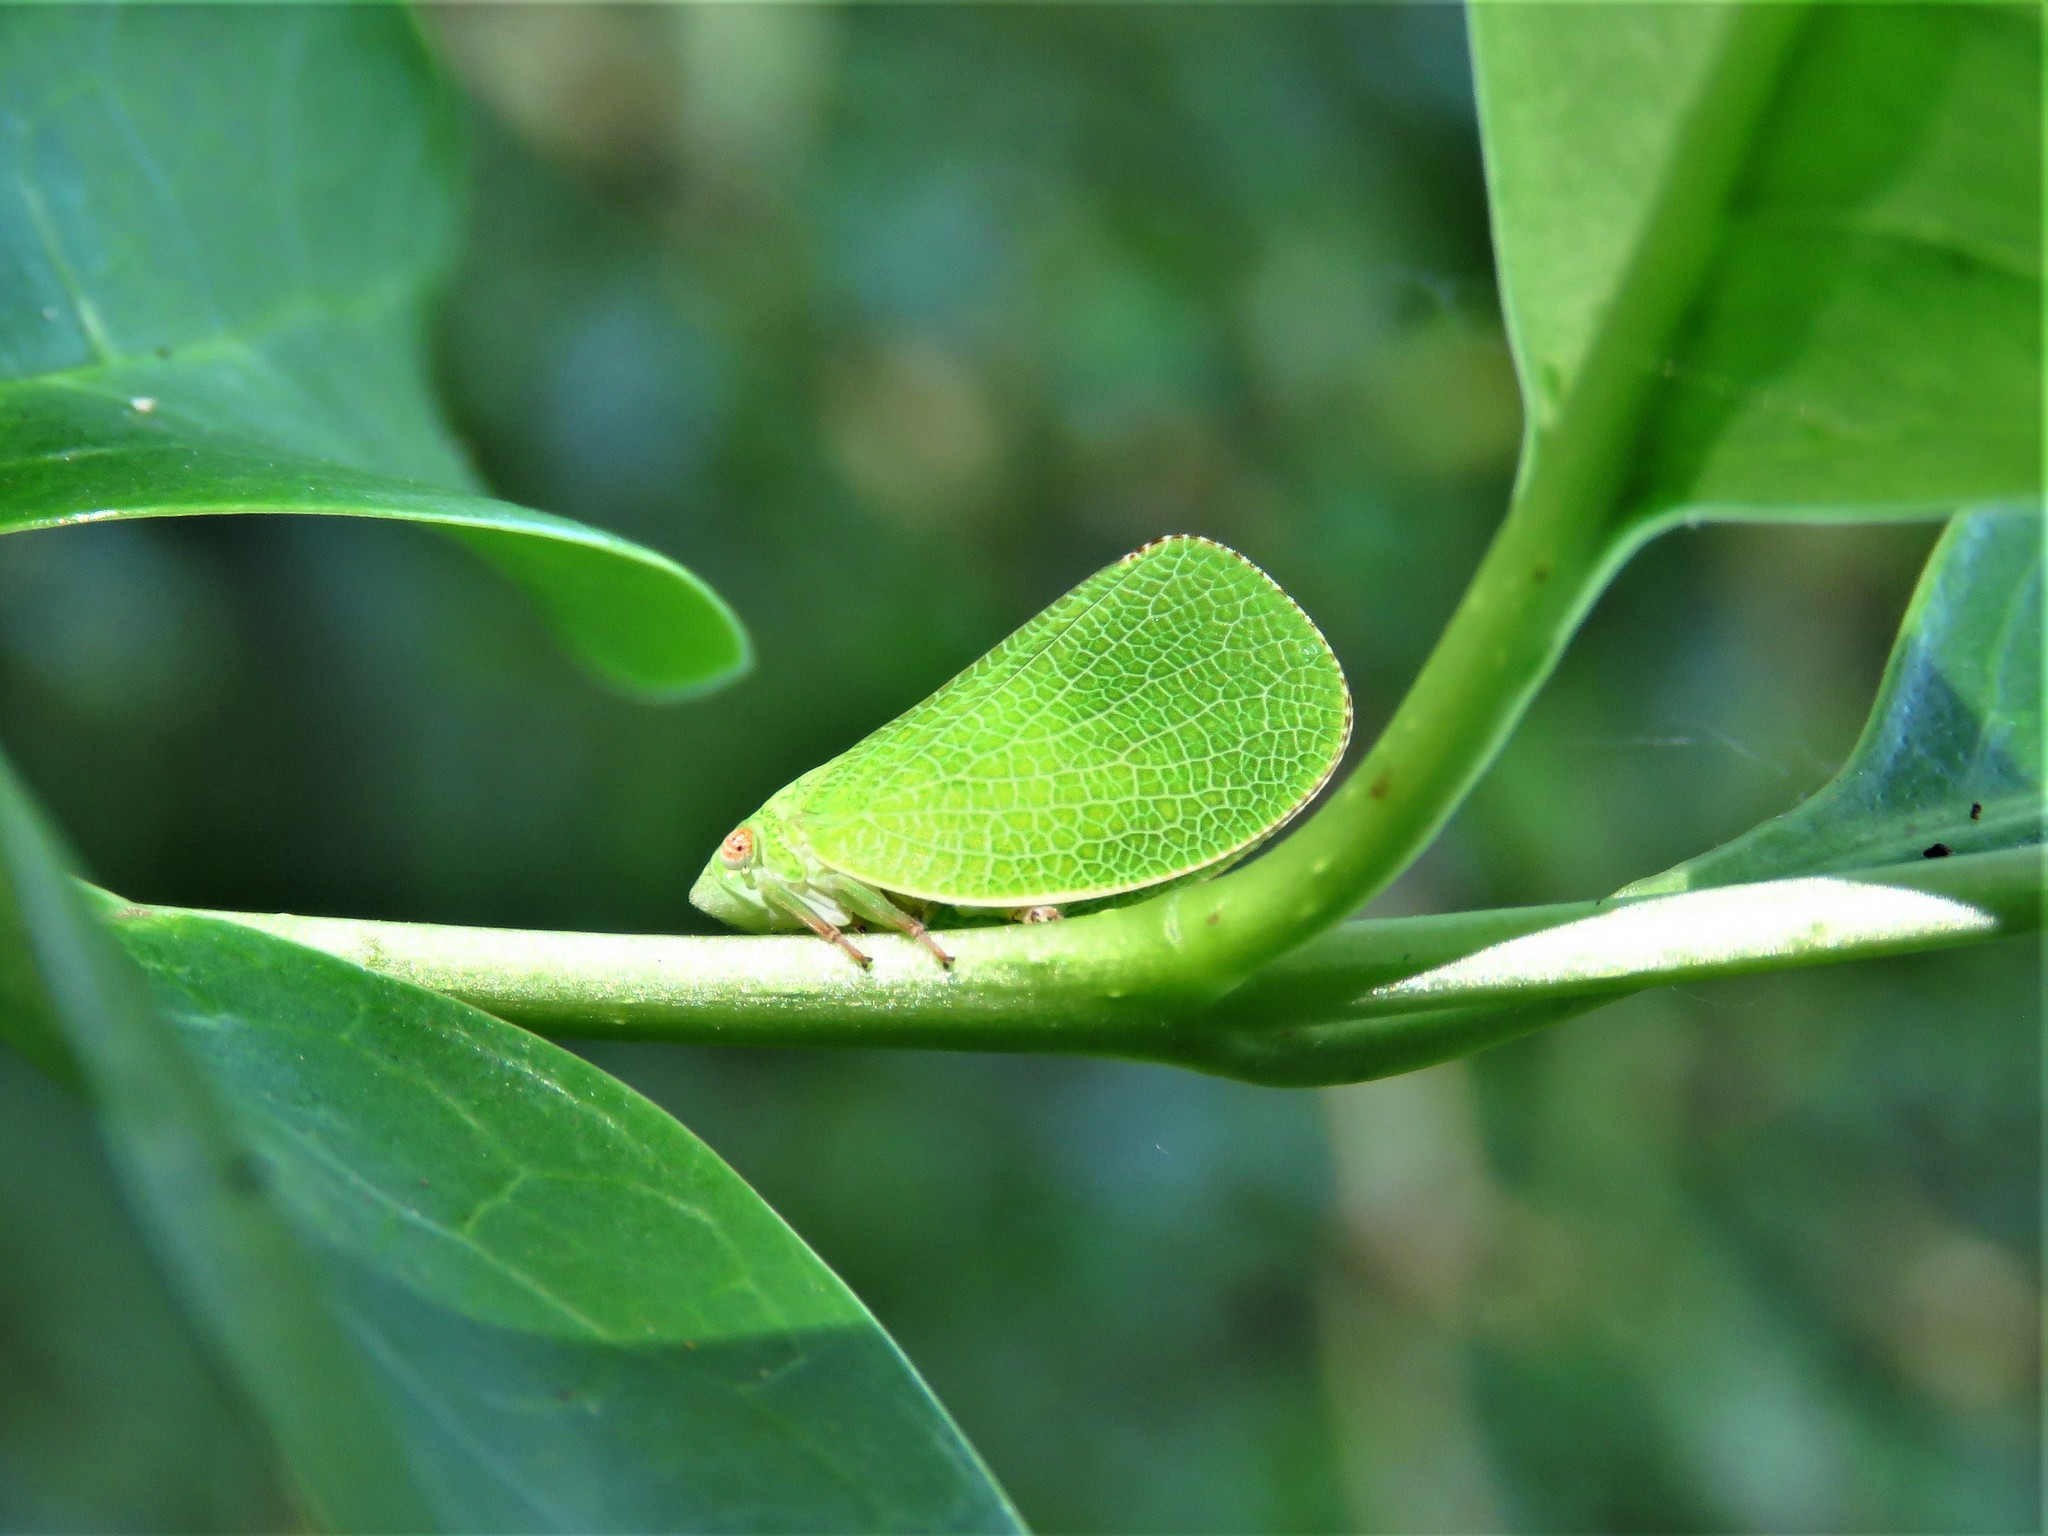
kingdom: Animalia
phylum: Arthropoda
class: Insecta
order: Hemiptera
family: Acanaloniidae
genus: Acanalonia
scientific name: Acanalonia conica
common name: Green cone-headed planthopper
